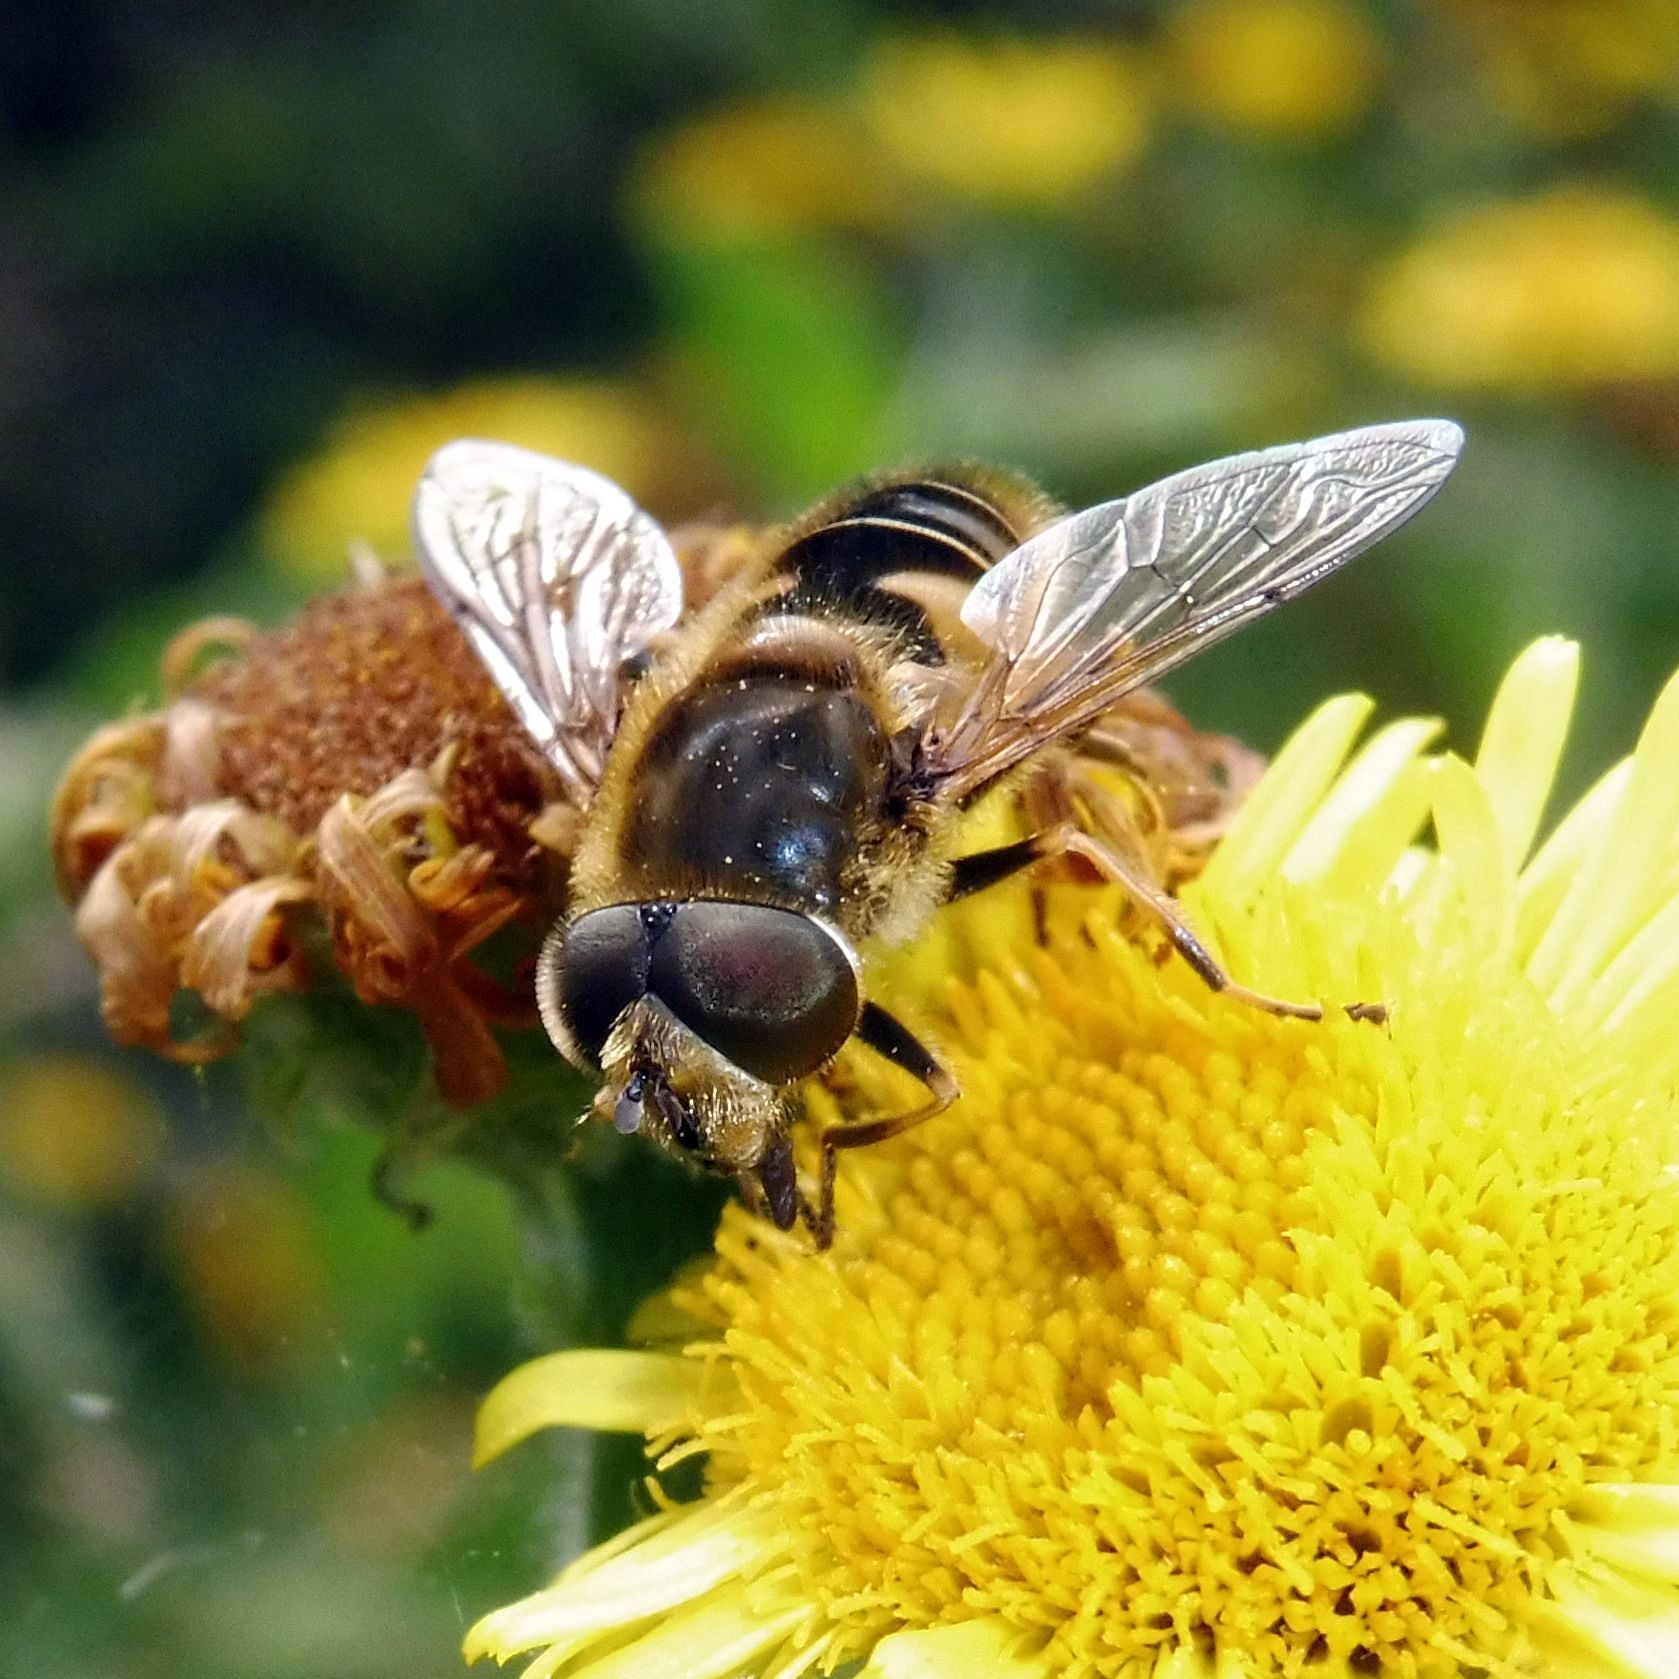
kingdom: Animalia
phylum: Arthropoda
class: Insecta
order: Diptera
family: Syrphidae
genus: Eristalis
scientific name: Eristalis nemorum
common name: Orange-spined drone fly
